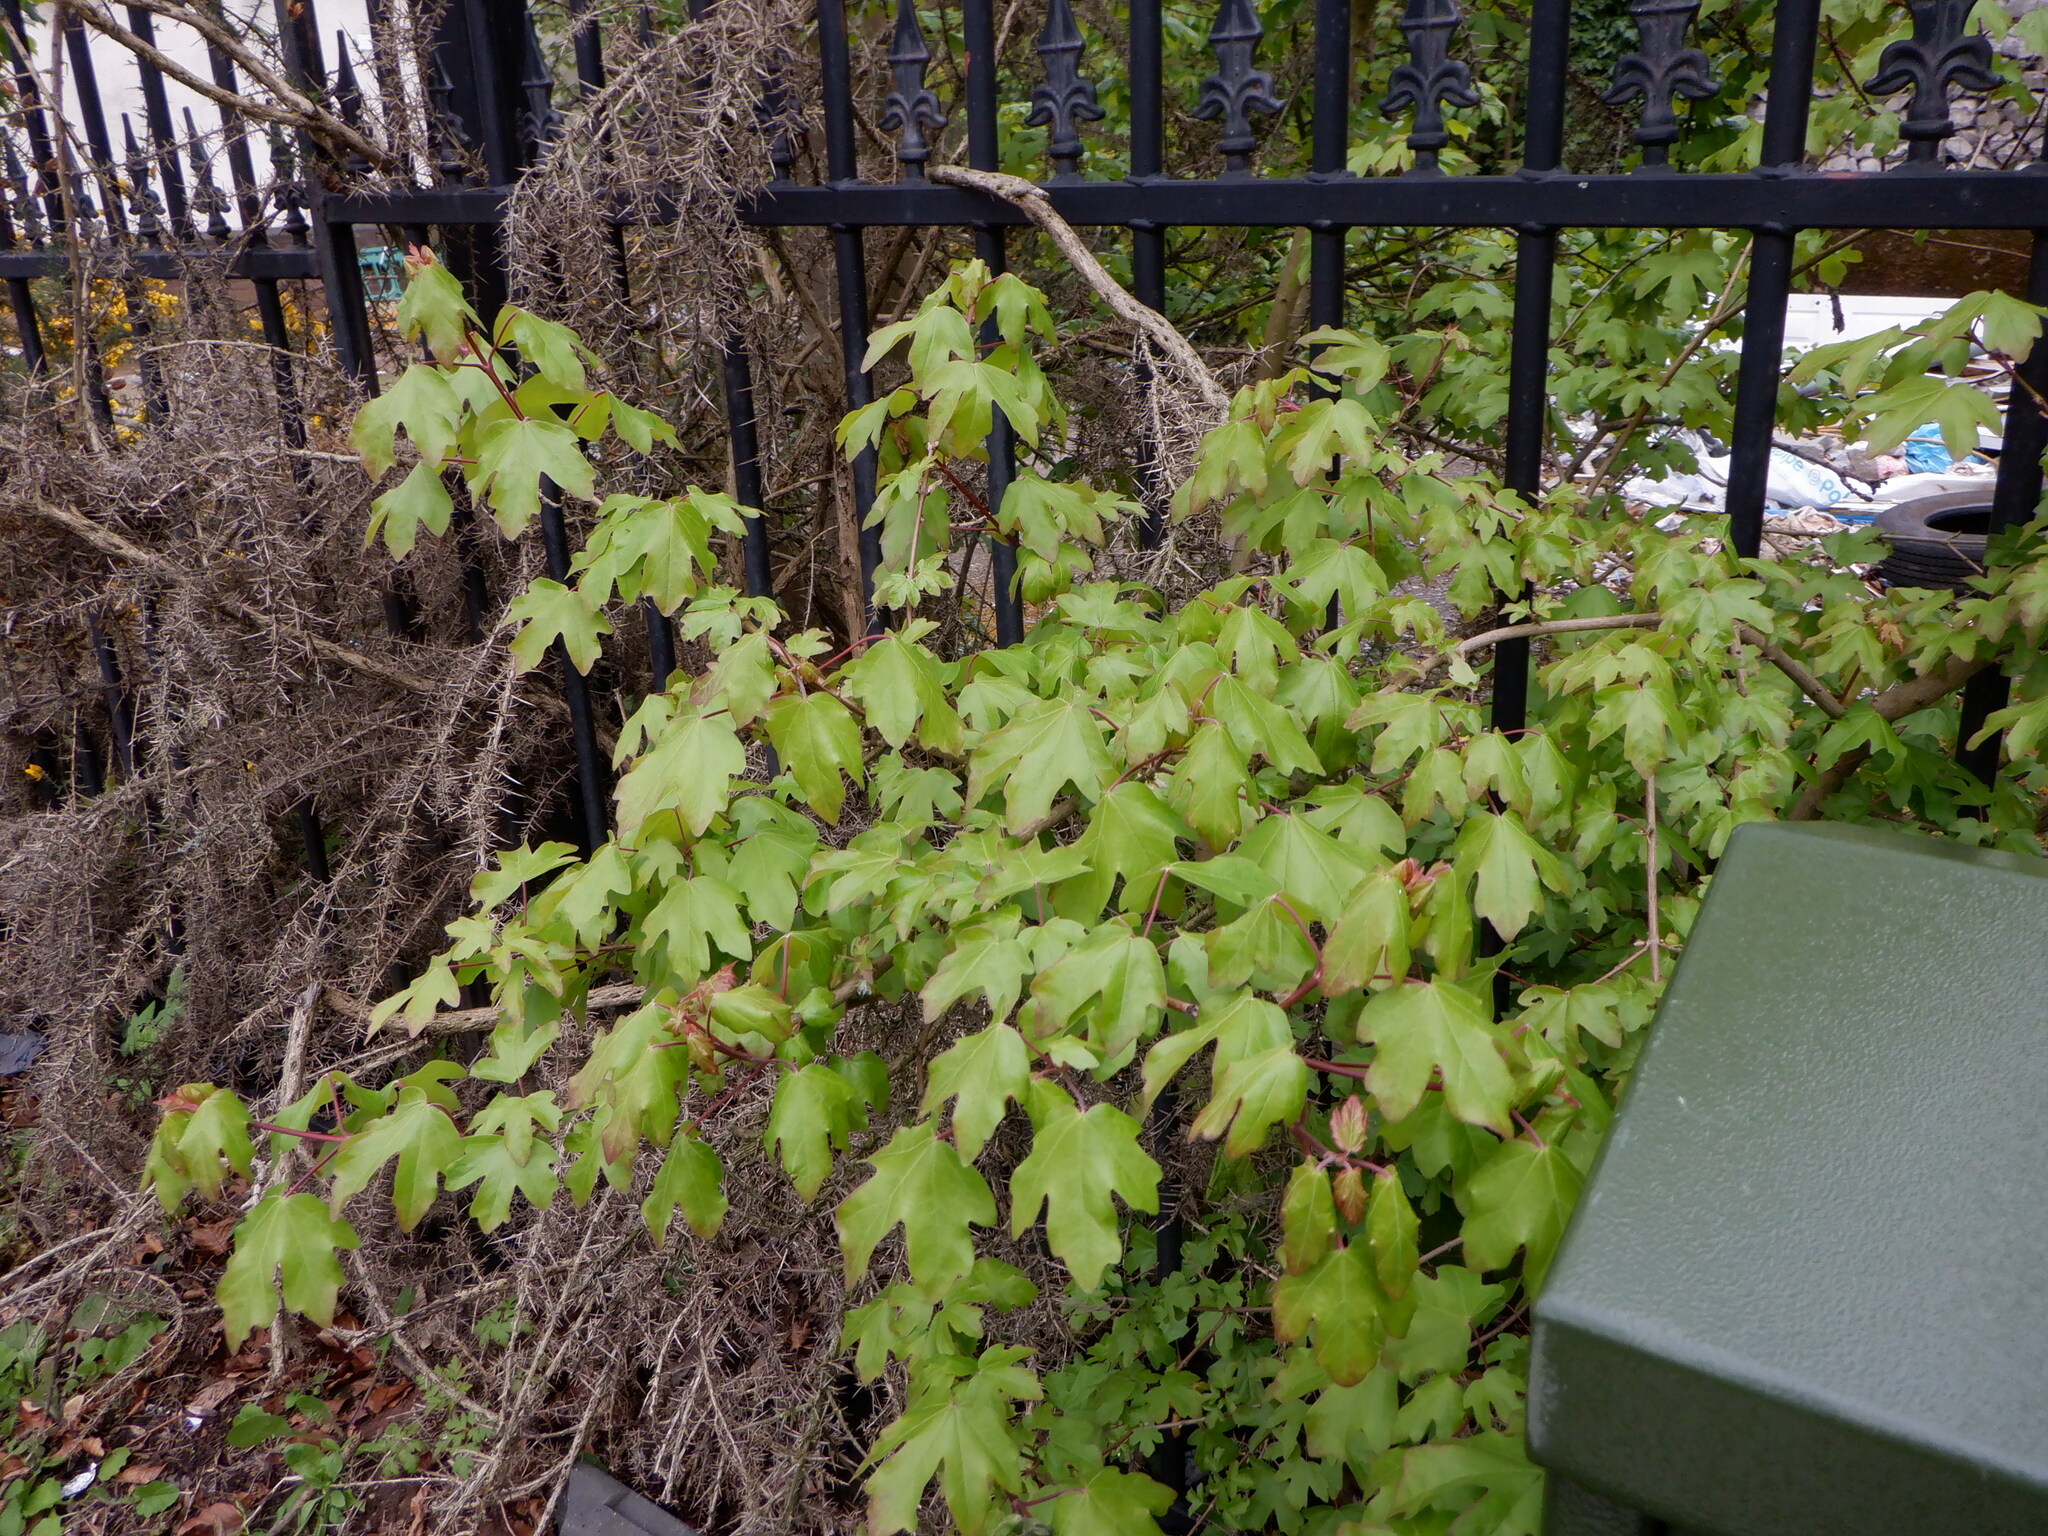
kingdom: Plantae
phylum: Tracheophyta
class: Magnoliopsida
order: Sapindales
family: Sapindaceae
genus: Acer
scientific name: Acer campestre
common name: Field maple
